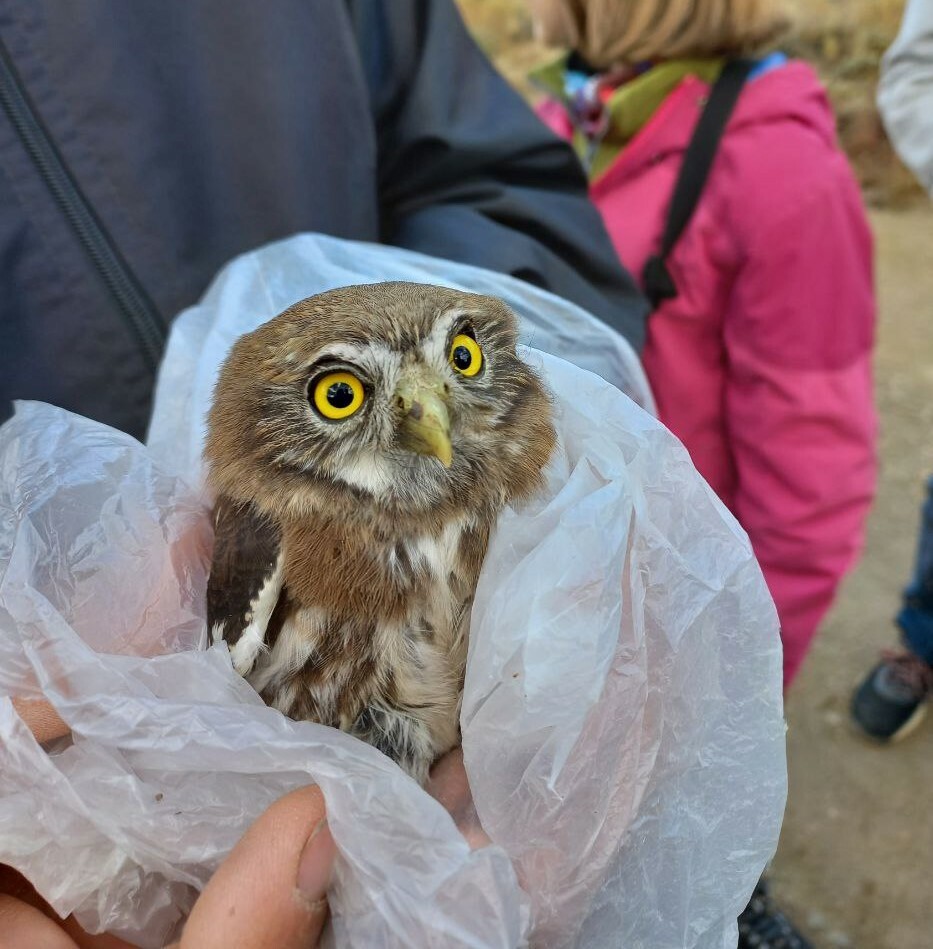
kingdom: Animalia
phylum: Chordata
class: Aves
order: Strigiformes
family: Strigidae
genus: Glaucidium
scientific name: Glaucidium nana
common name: Austral pygmy-owl
